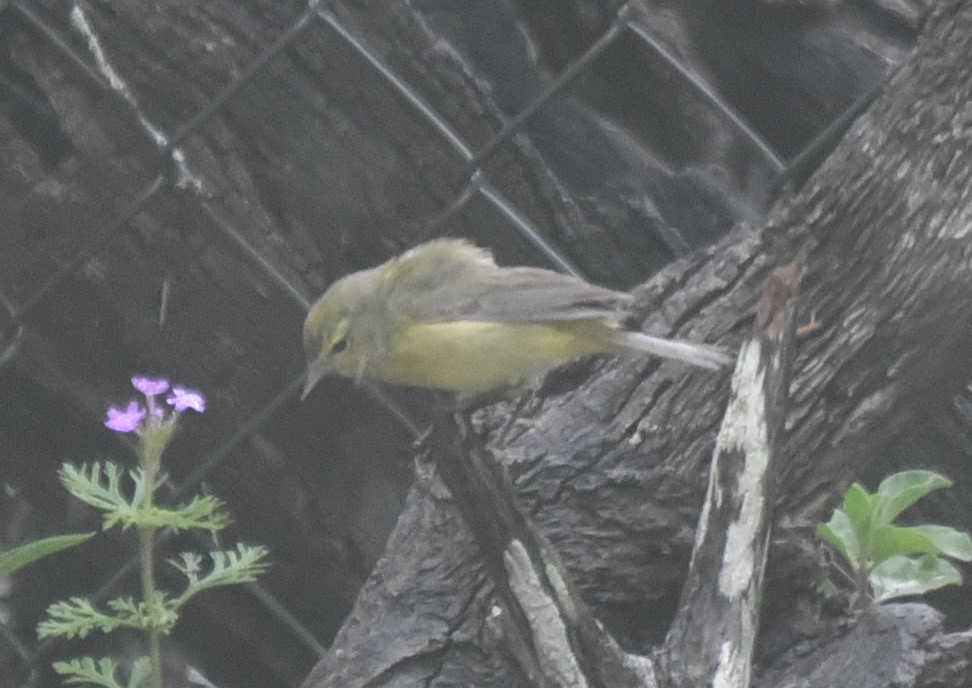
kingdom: Animalia
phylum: Chordata
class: Aves
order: Passeriformes
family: Parulidae
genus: Leiothlypis
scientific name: Leiothlypis celata
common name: Orange-crowned warbler
